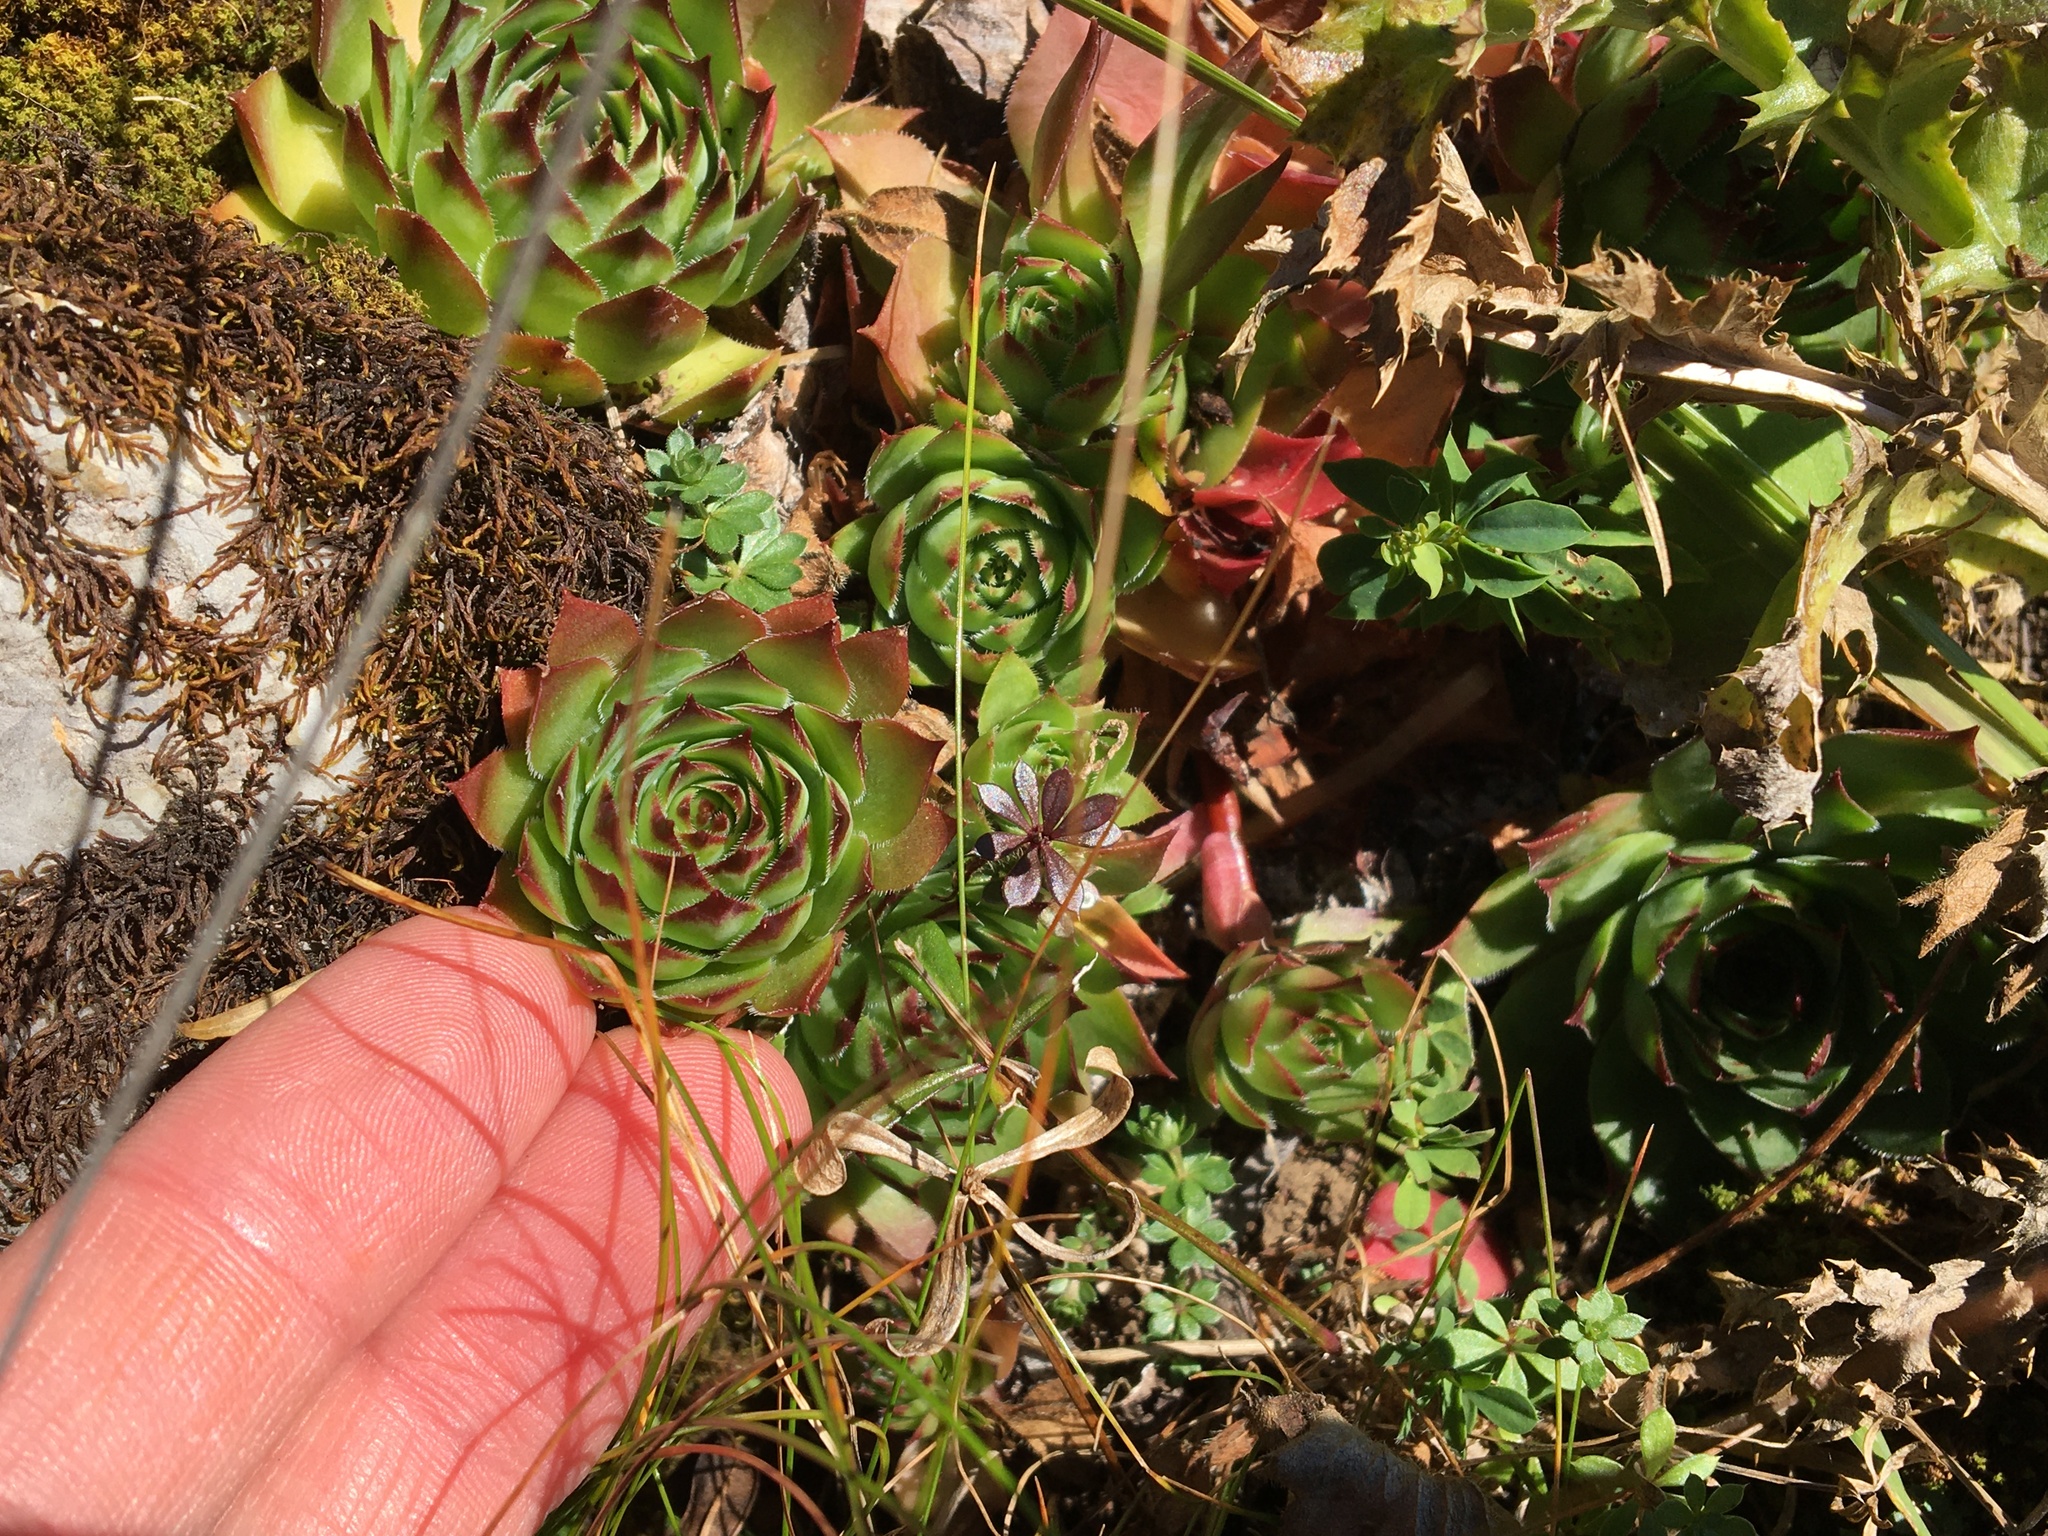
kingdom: Plantae
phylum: Tracheophyta
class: Magnoliopsida
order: Saxifragales
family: Crassulaceae
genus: Sempervivum
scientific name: Sempervivum tectorum
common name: House-leek
